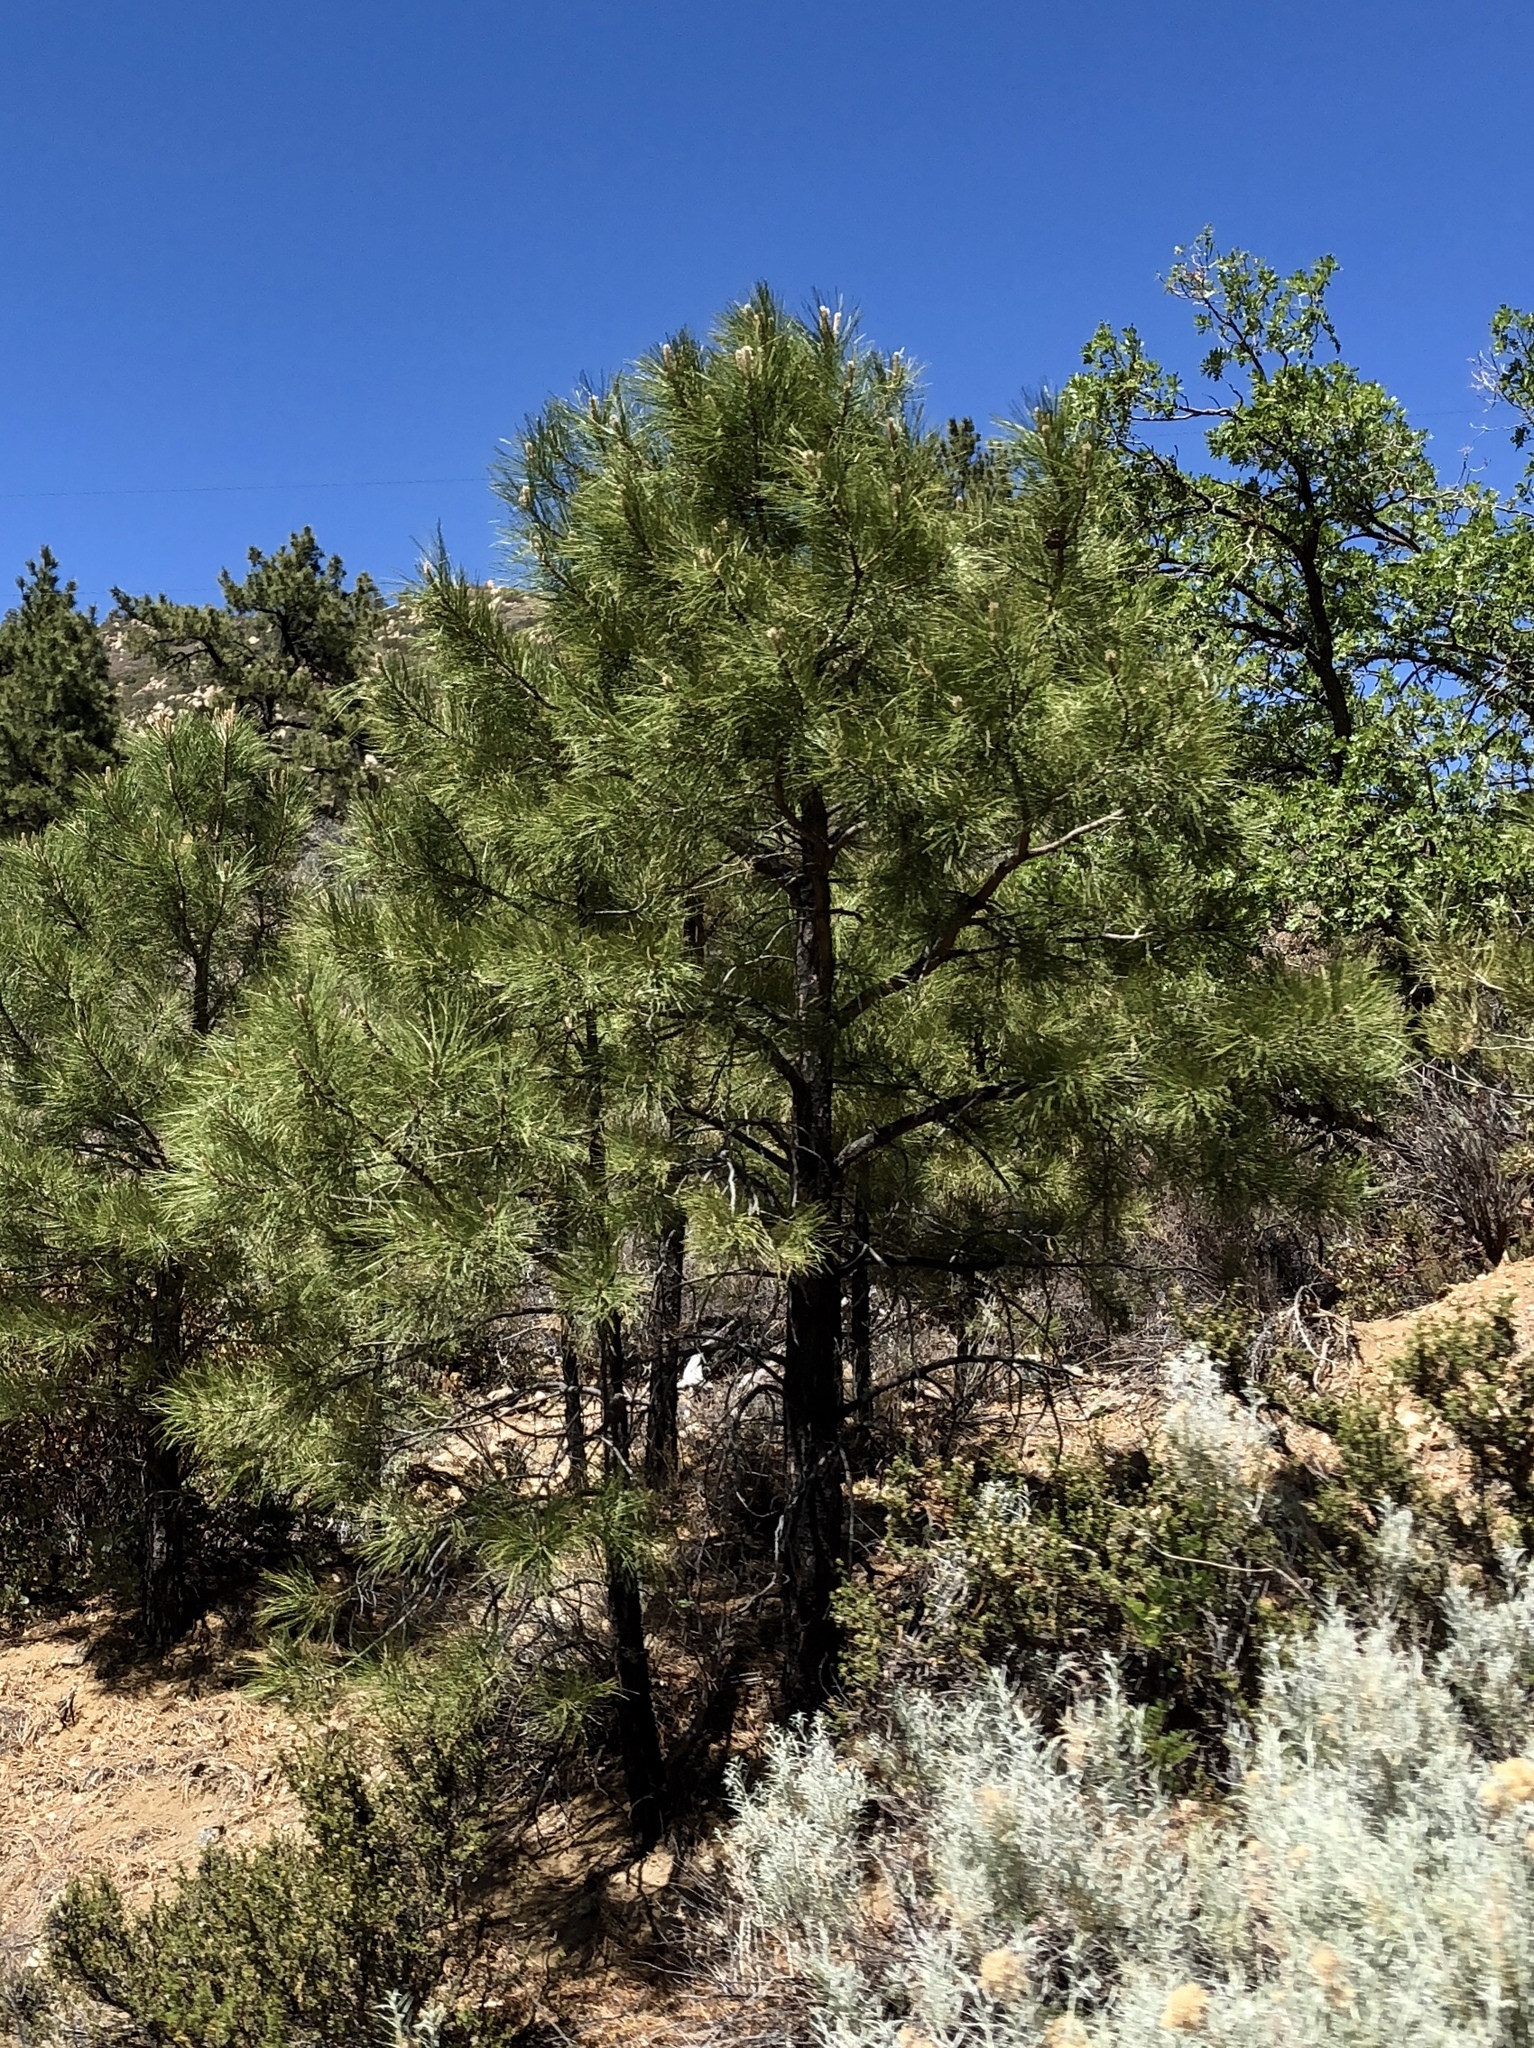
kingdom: Plantae
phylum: Tracheophyta
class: Pinopsida
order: Pinales
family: Pinaceae
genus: Pinus
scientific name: Pinus ponderosa
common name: Western yellow-pine
